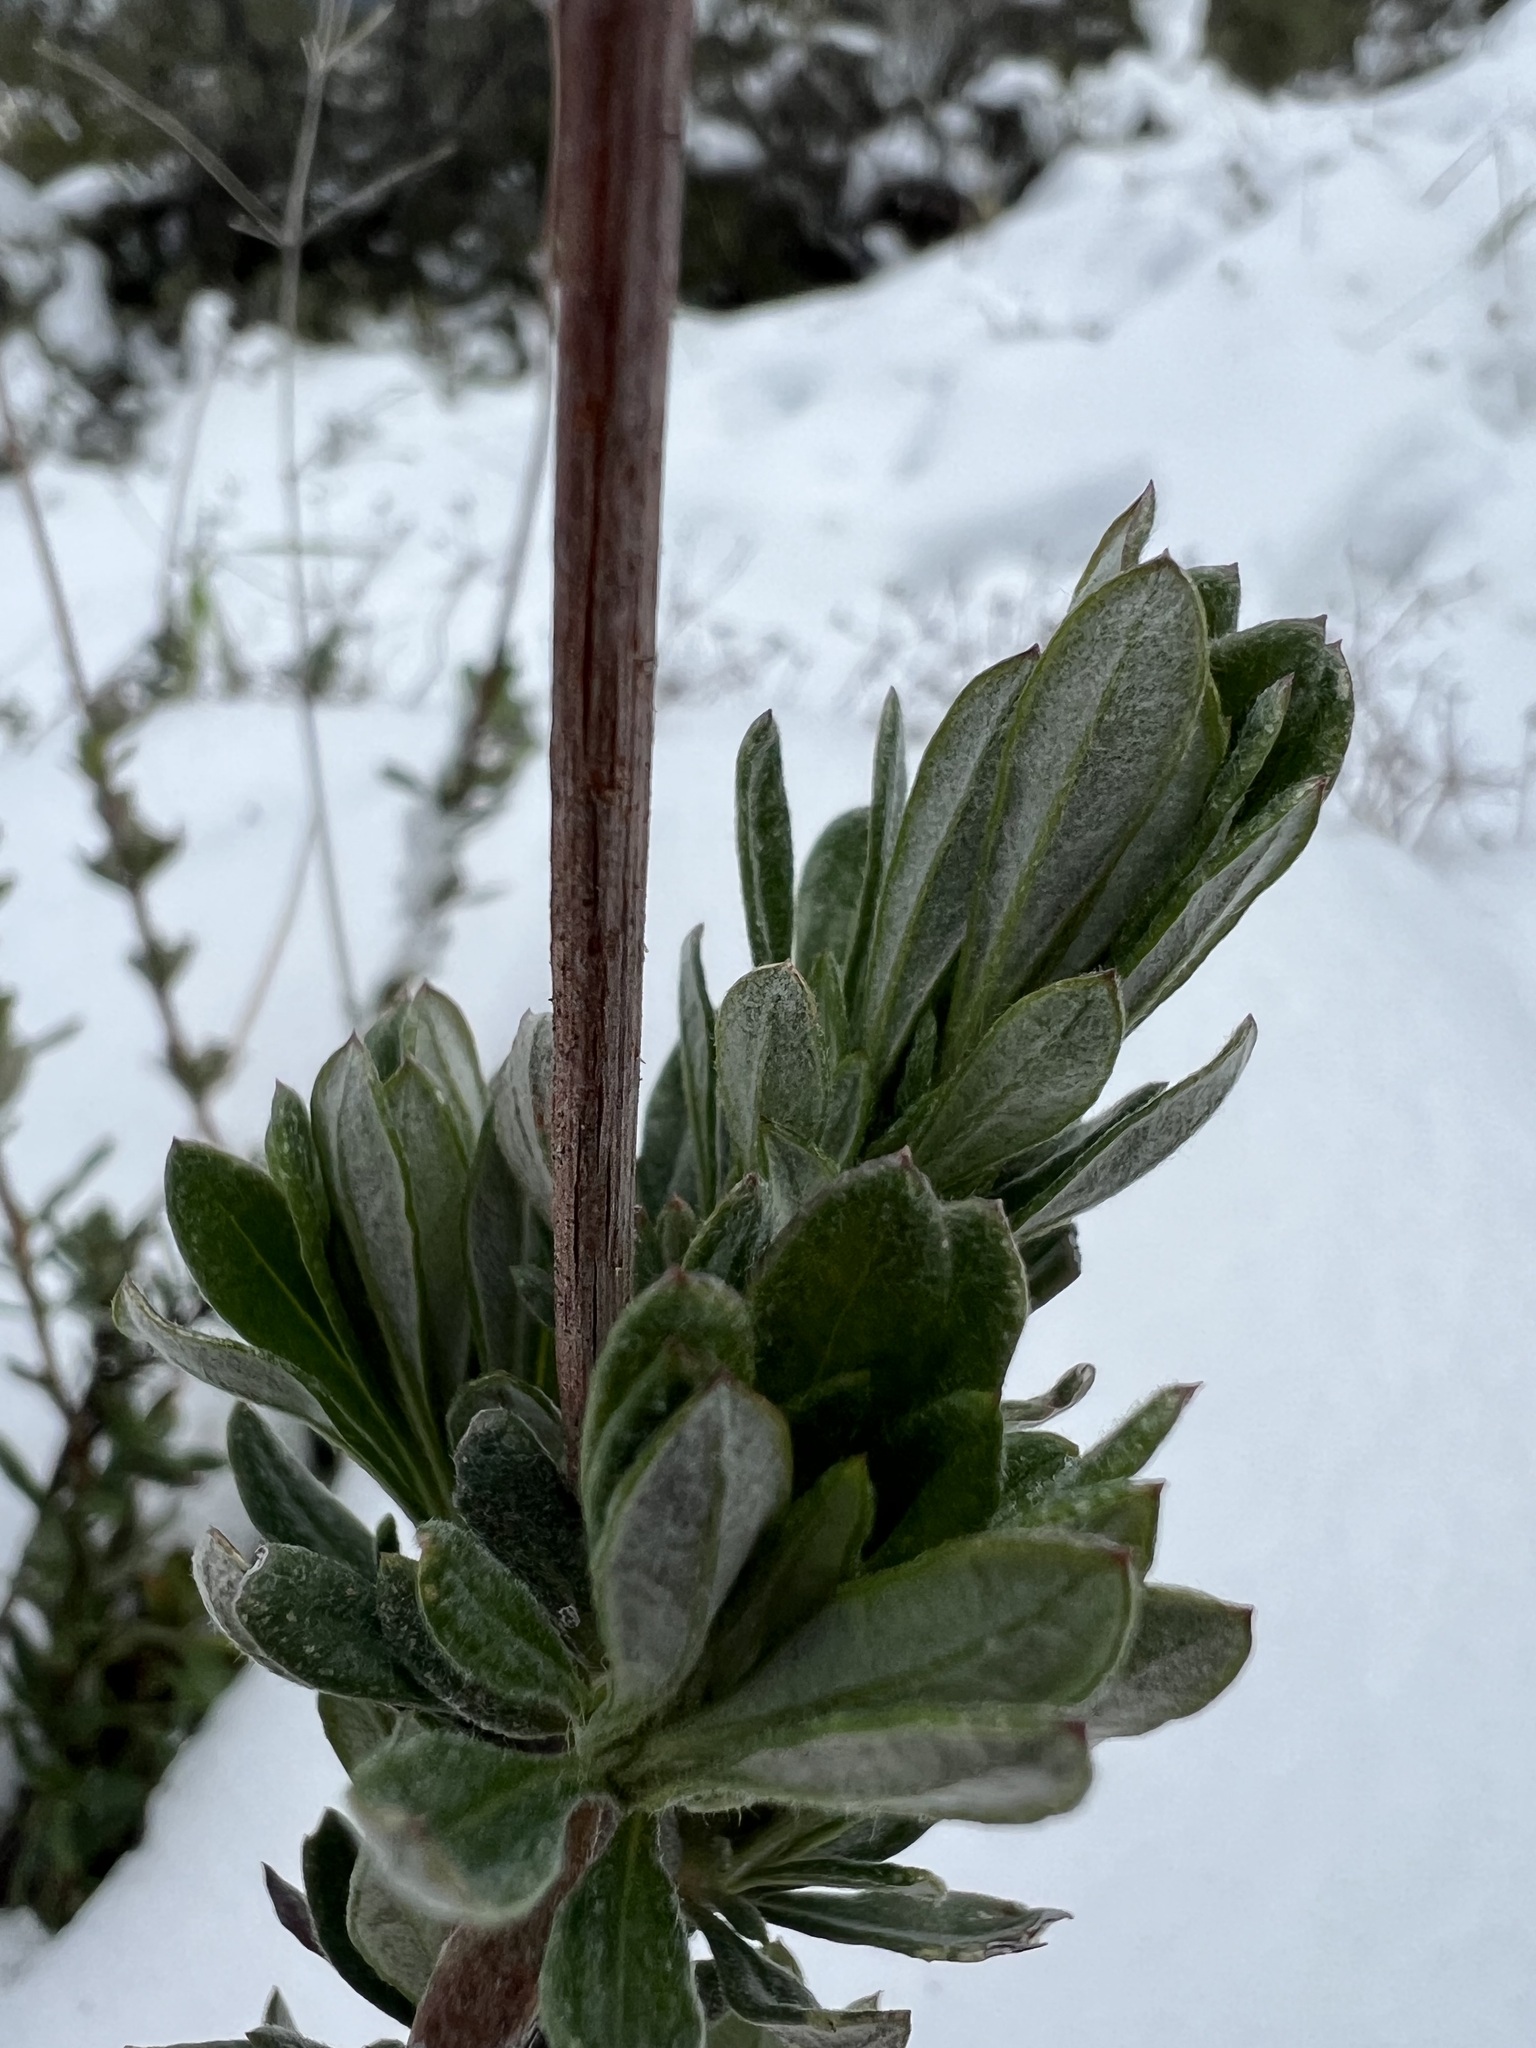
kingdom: Plantae
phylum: Tracheophyta
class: Magnoliopsida
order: Caryophyllales
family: Polygonaceae
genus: Eriogonum
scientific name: Eriogonum fasciculatum
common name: California wild buckwheat
